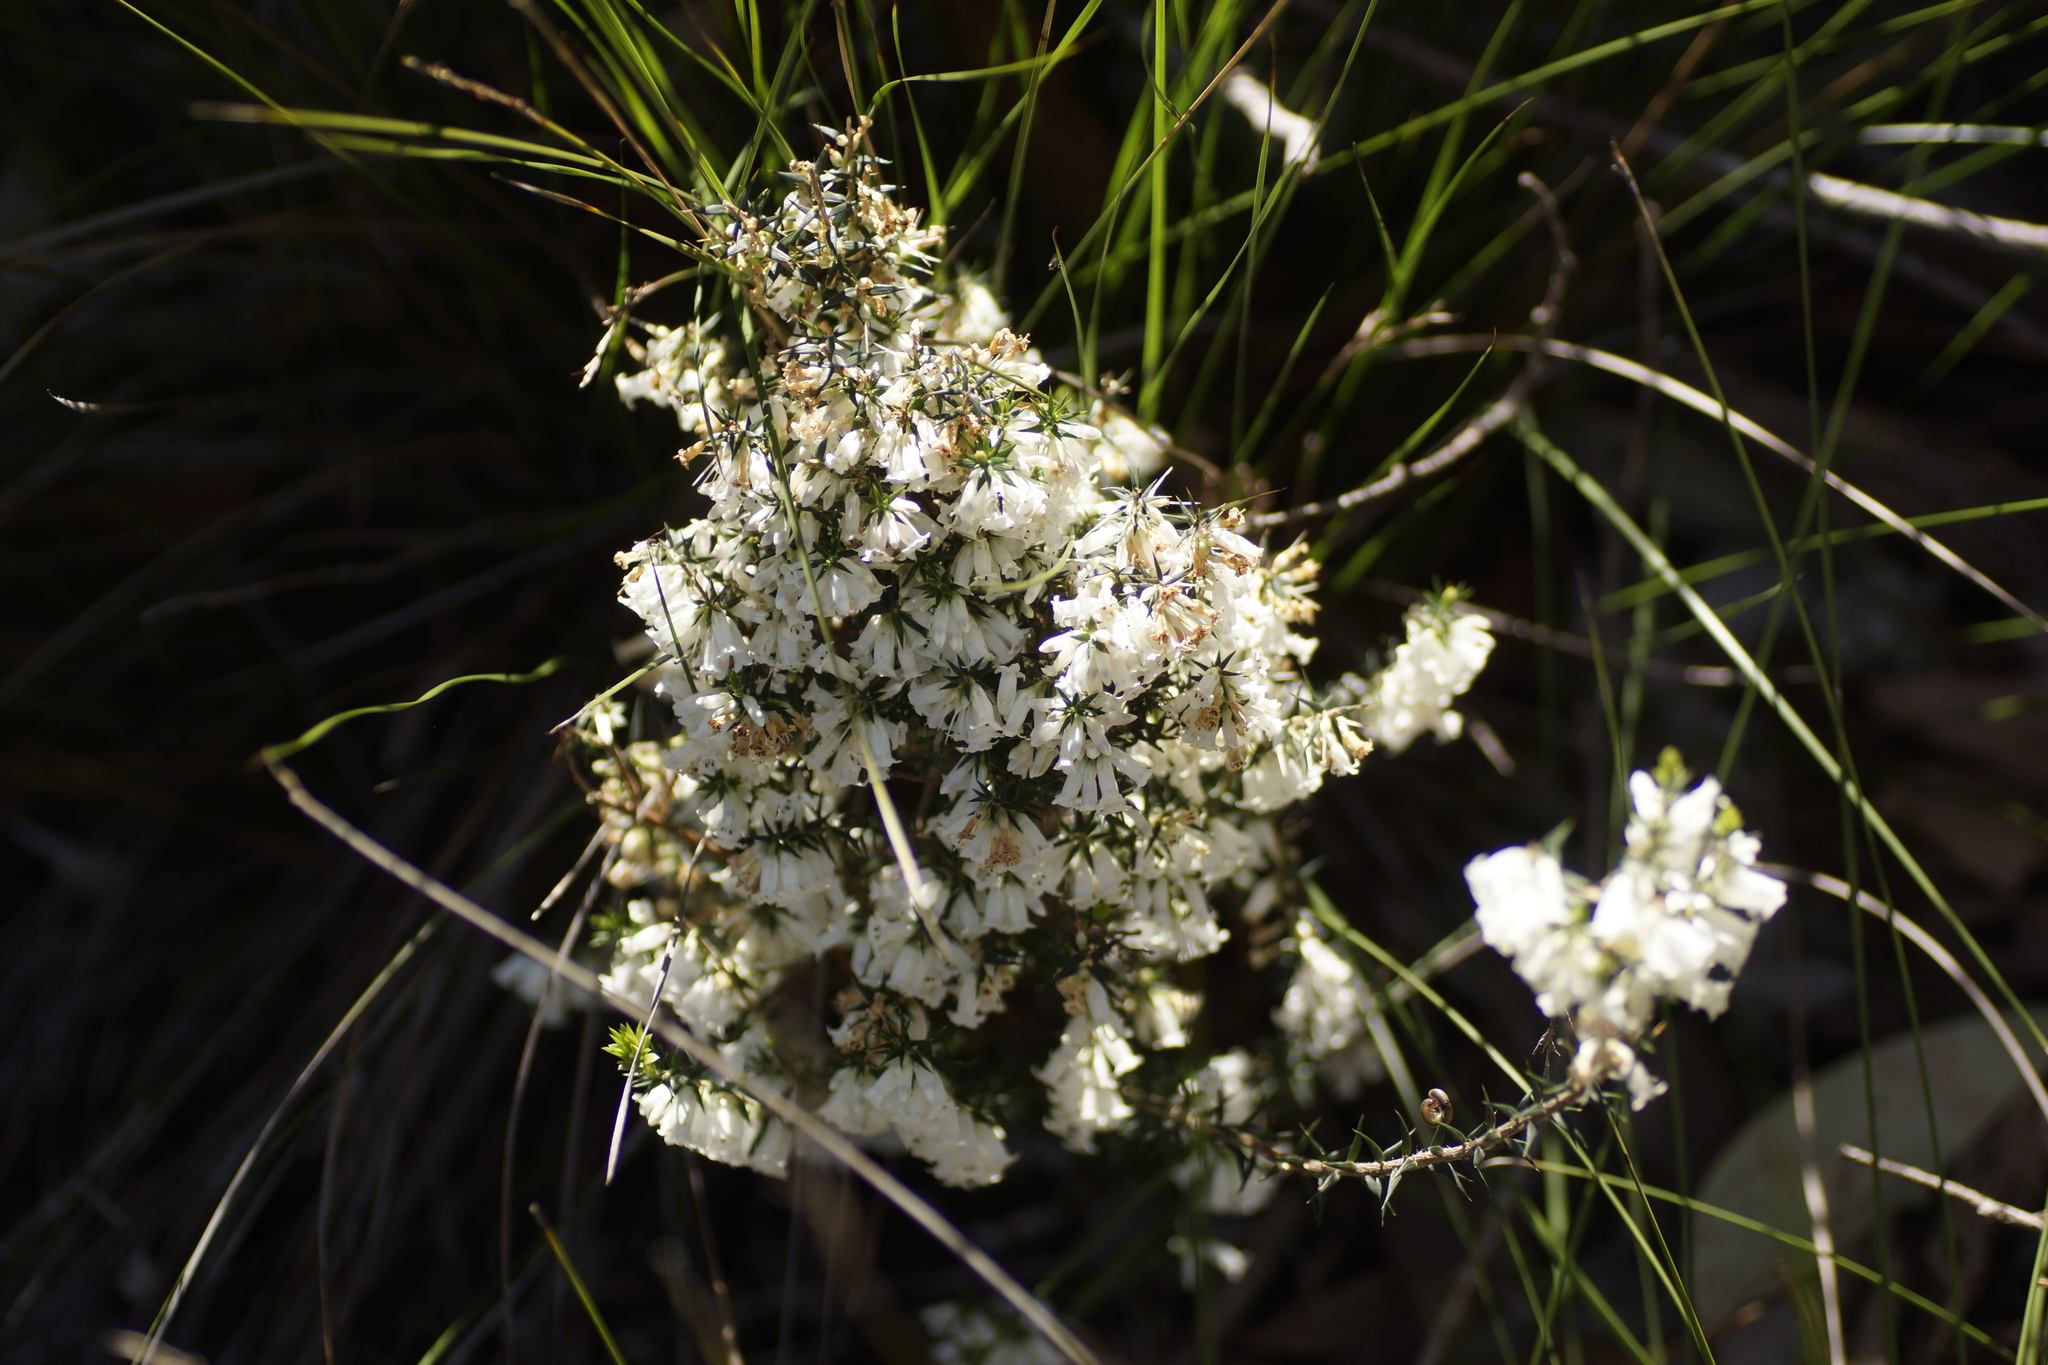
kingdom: Plantae
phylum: Tracheophyta
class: Magnoliopsida
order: Ericales
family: Ericaceae
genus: Epacris
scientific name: Epacris impressa
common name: Common-heath
